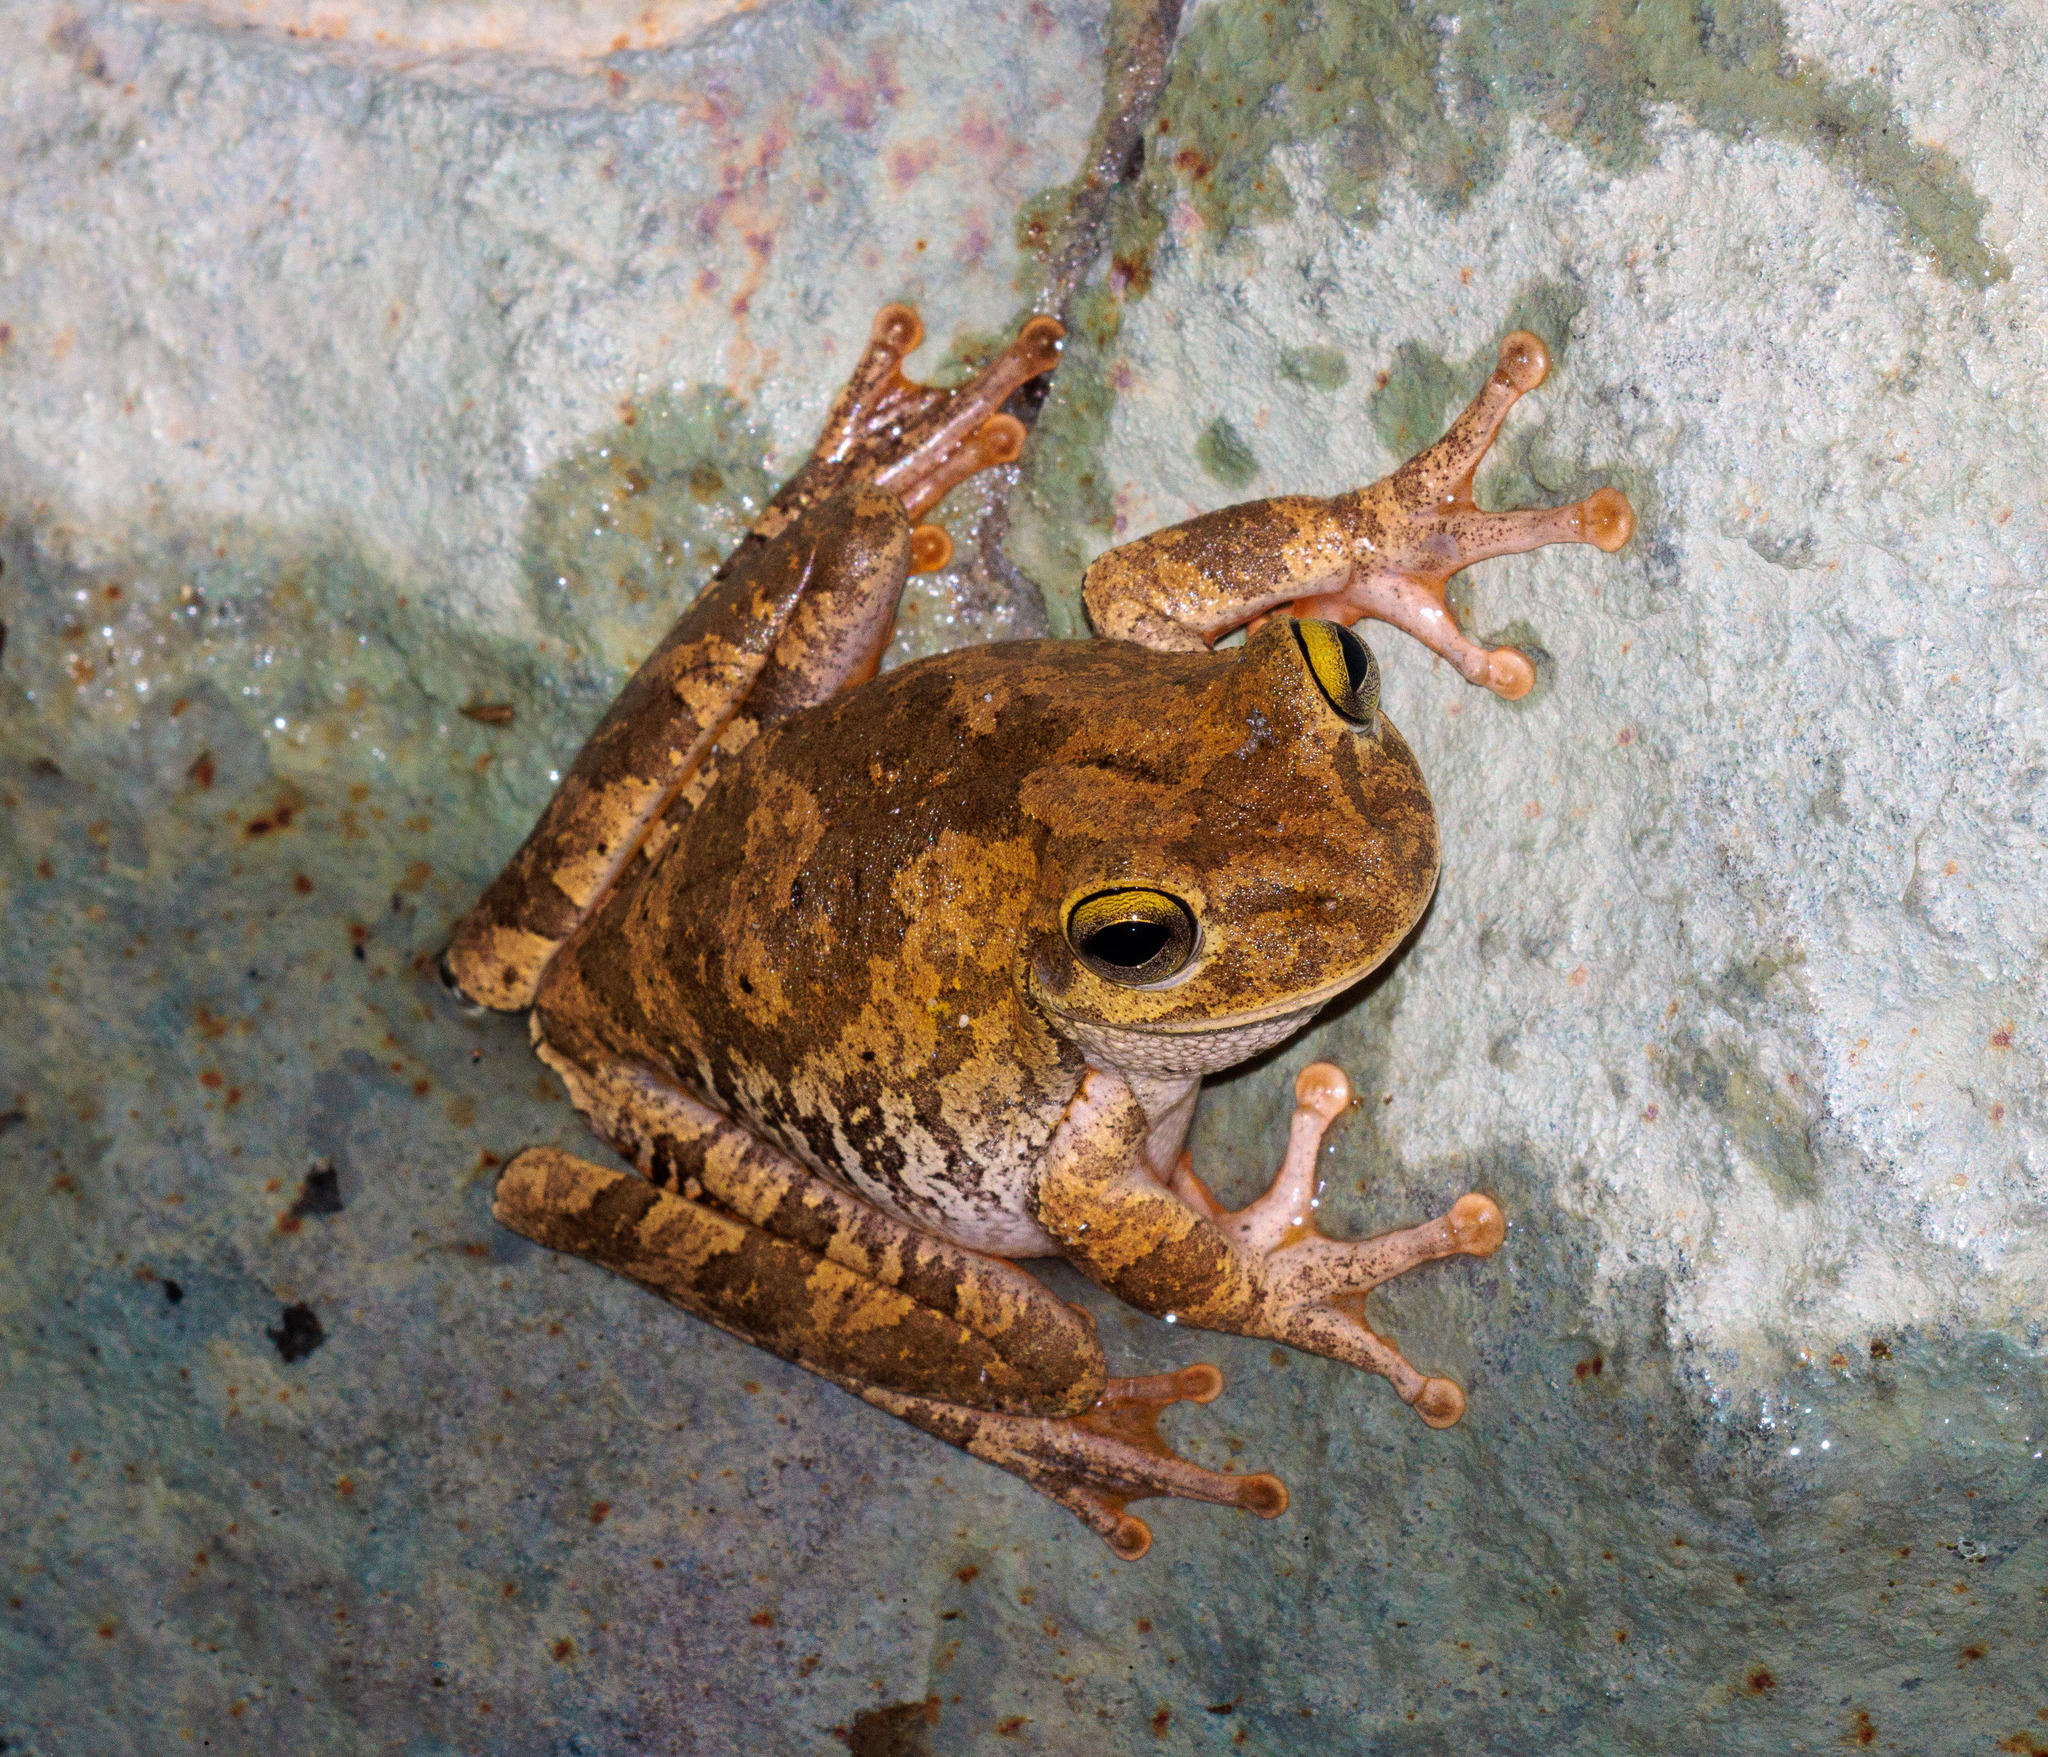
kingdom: Animalia
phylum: Chordata
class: Amphibia
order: Anura
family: Hylidae
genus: Boana
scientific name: Boana crepitans
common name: Emerald-eyed treefrog
